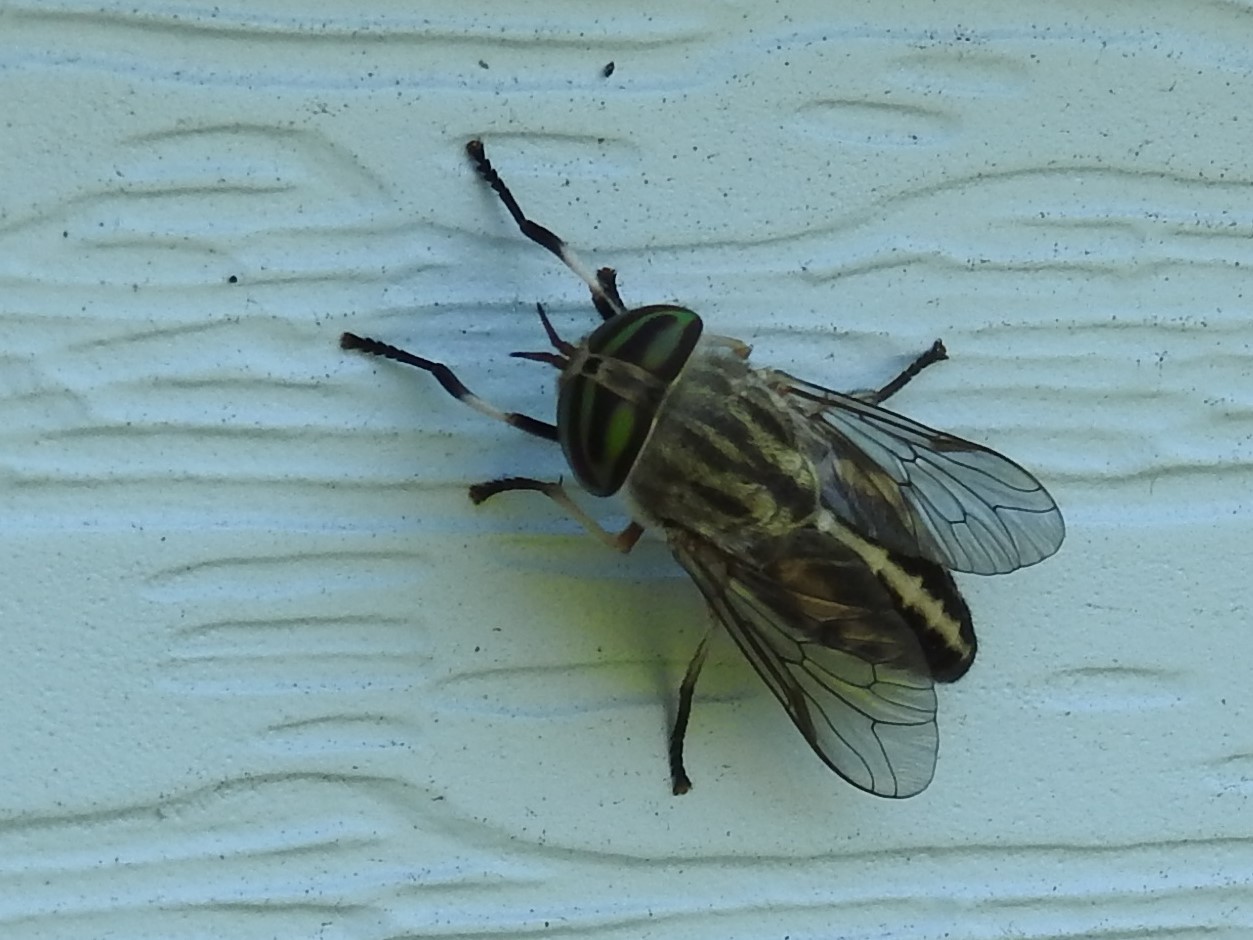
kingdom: Animalia
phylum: Arthropoda
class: Insecta
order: Diptera
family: Tabanidae
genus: Tabanus
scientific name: Tabanus subsimilis
